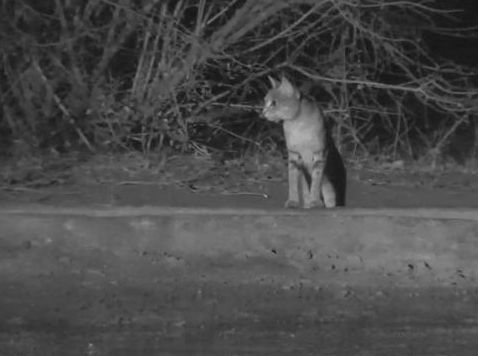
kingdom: Animalia
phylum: Chordata
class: Mammalia
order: Carnivora
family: Felidae
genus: Felis
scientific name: Felis silvestris
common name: Wildcat
